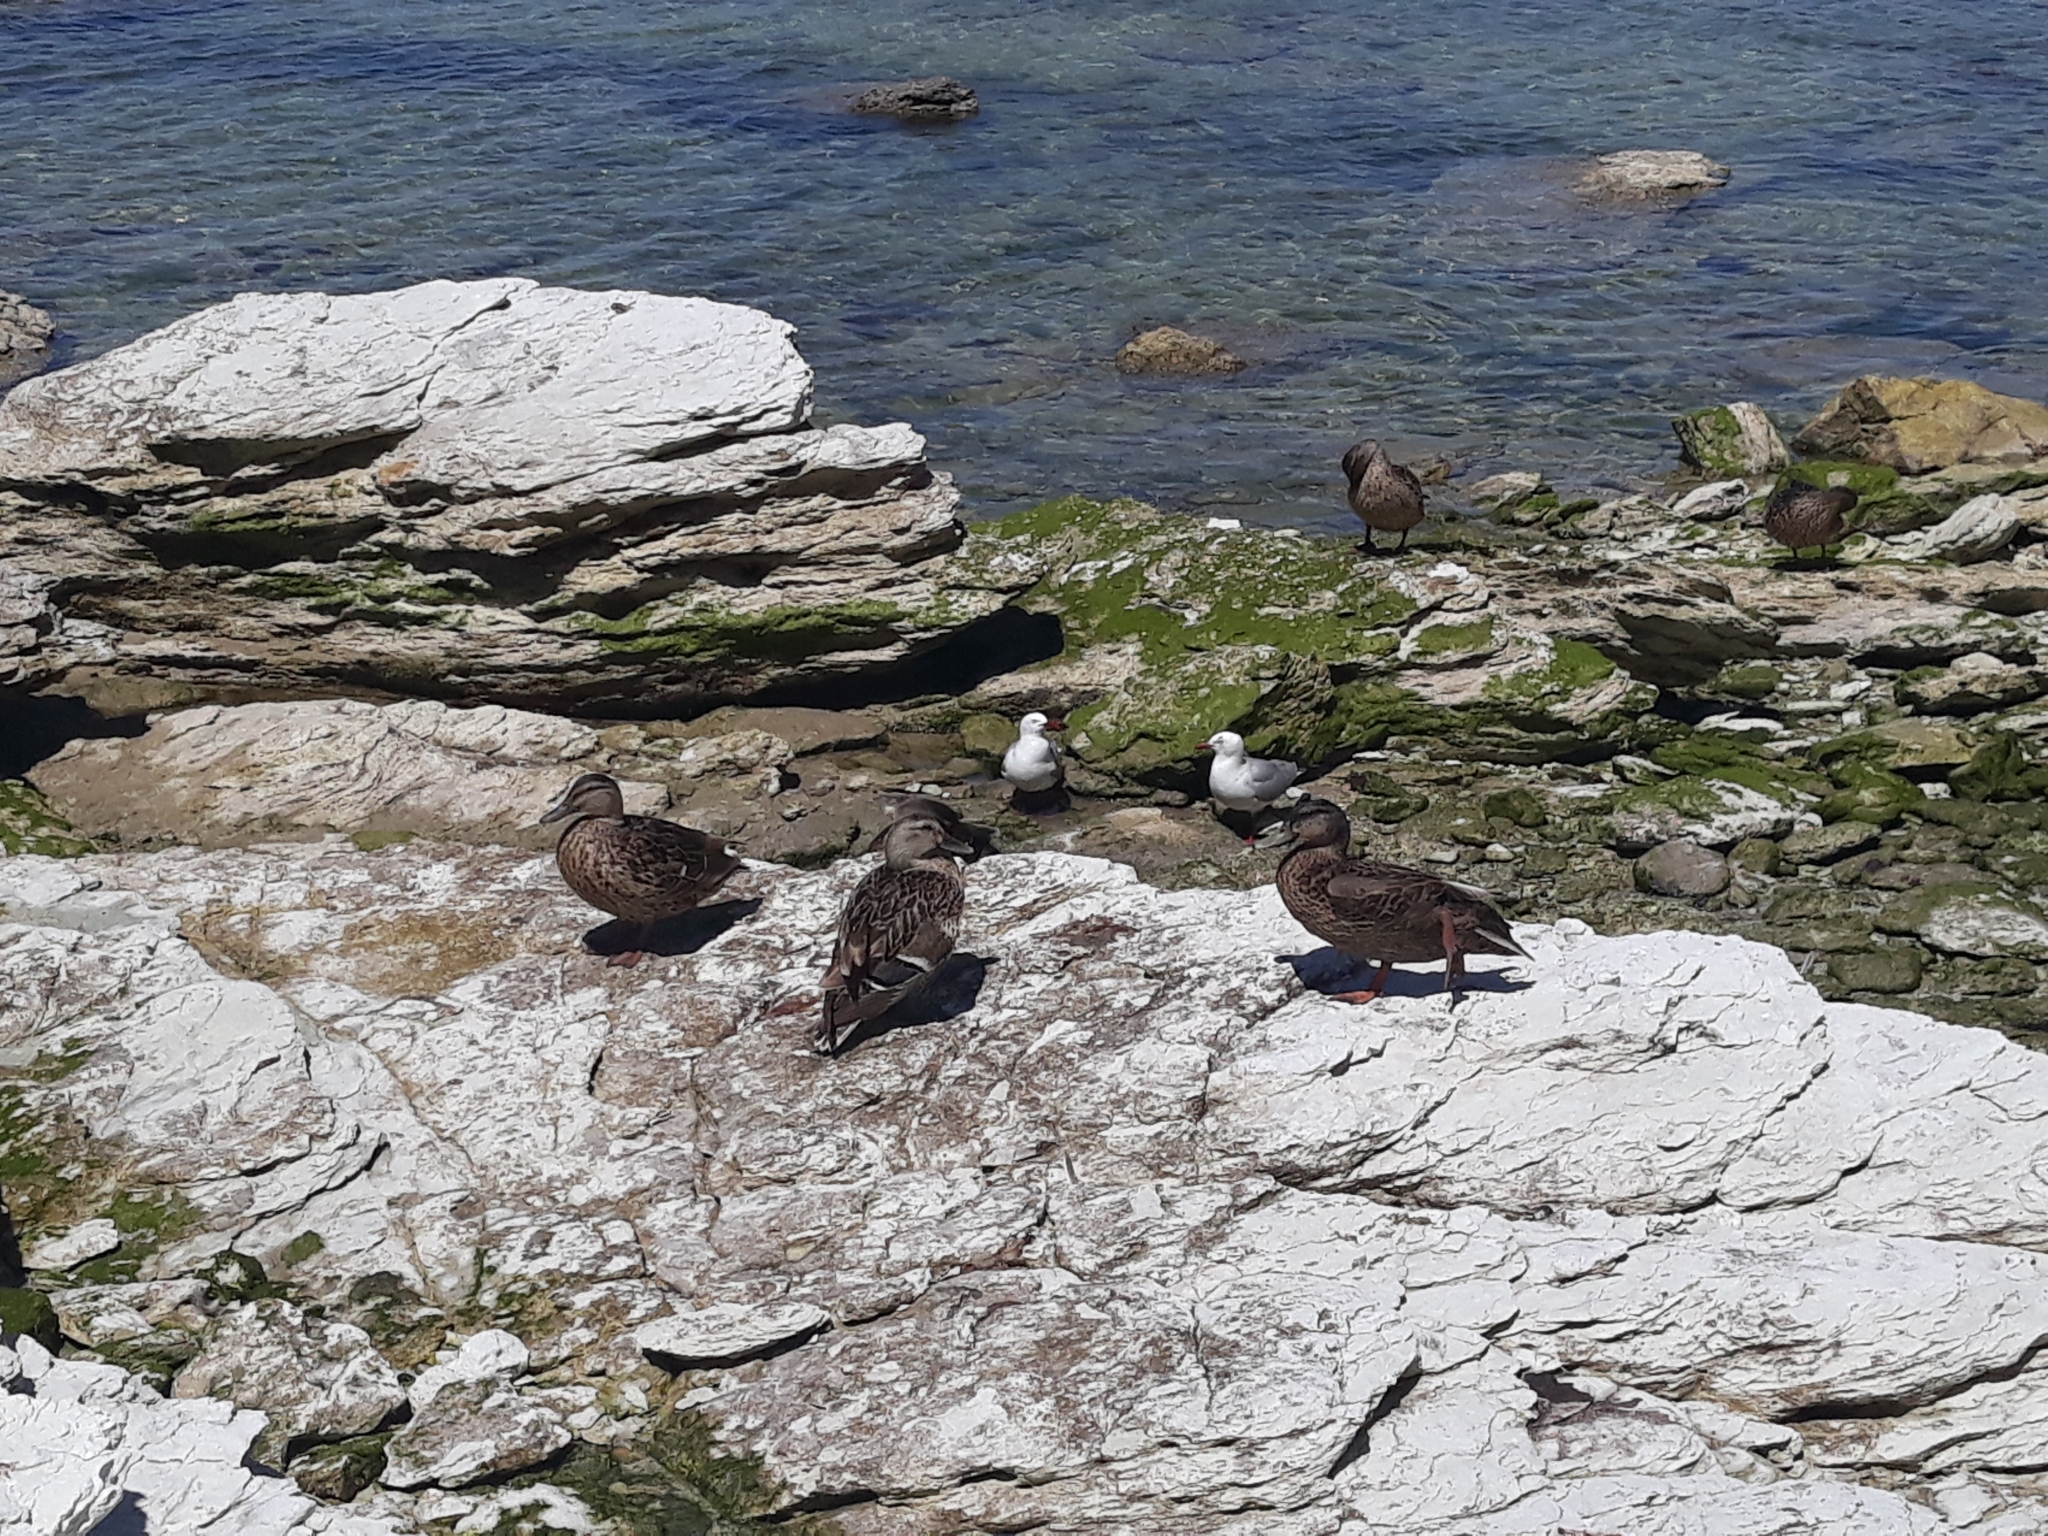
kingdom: Animalia
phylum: Chordata
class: Aves
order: Anseriformes
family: Anatidae
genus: Anas
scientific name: Anas platyrhynchos
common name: Mallard
